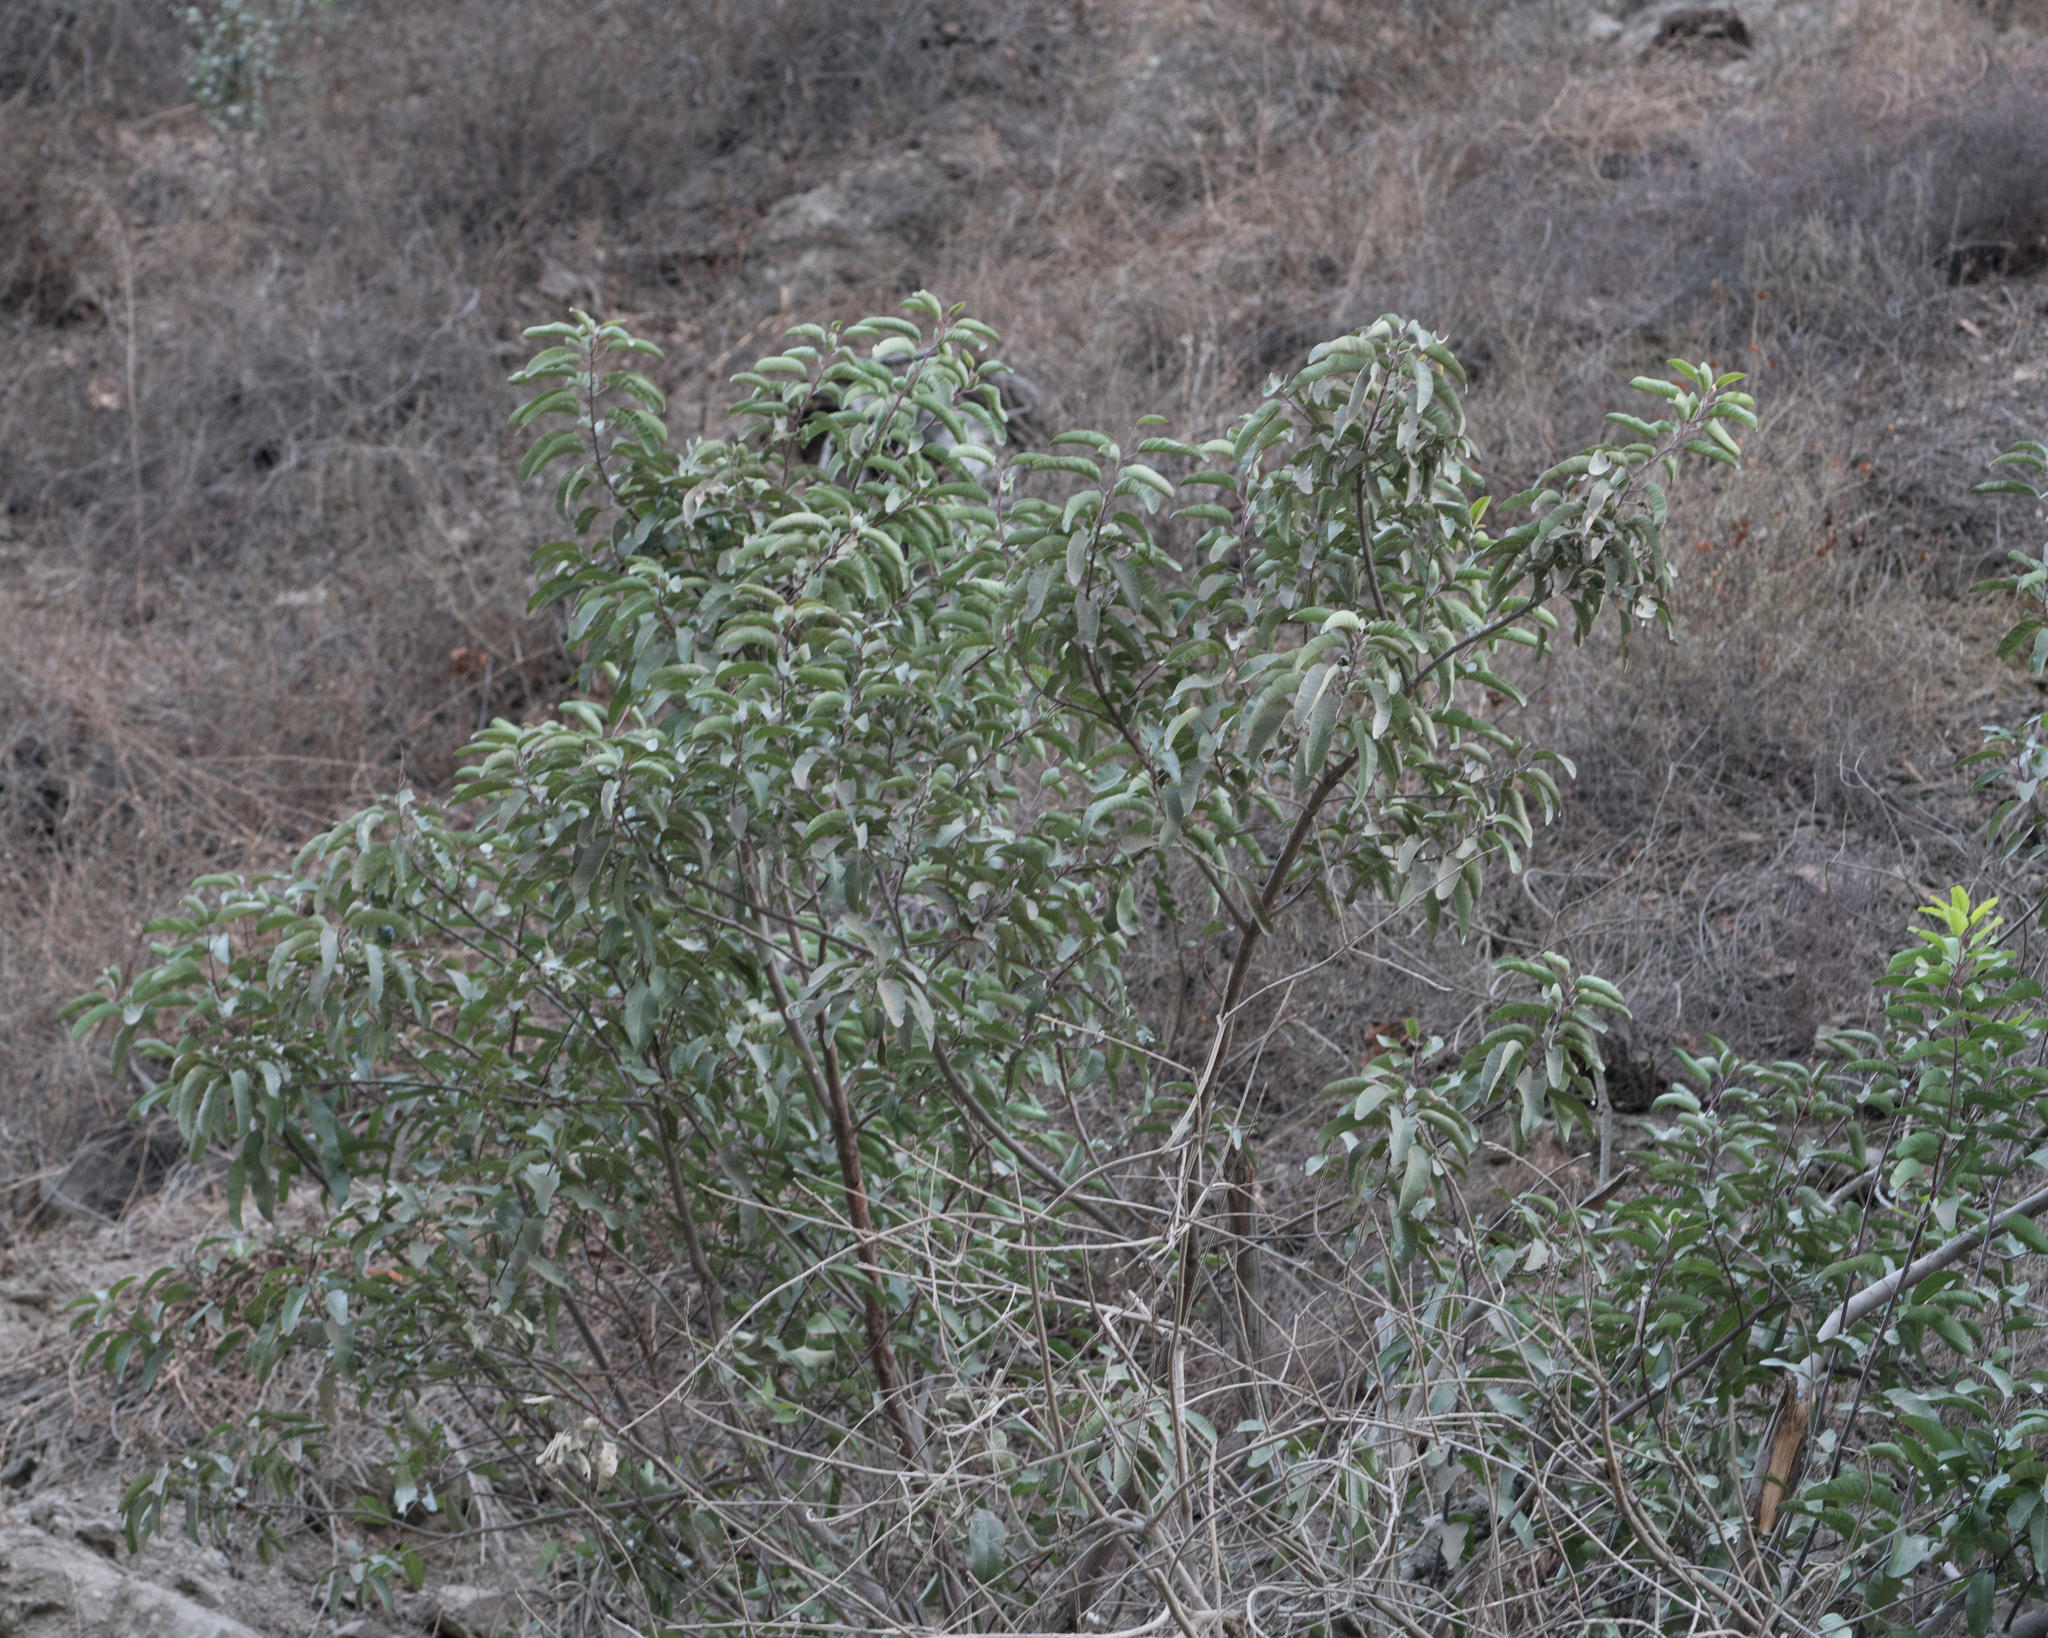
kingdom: Plantae
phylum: Tracheophyta
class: Magnoliopsida
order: Sapindales
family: Anacardiaceae
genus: Malosma
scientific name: Malosma laurina
